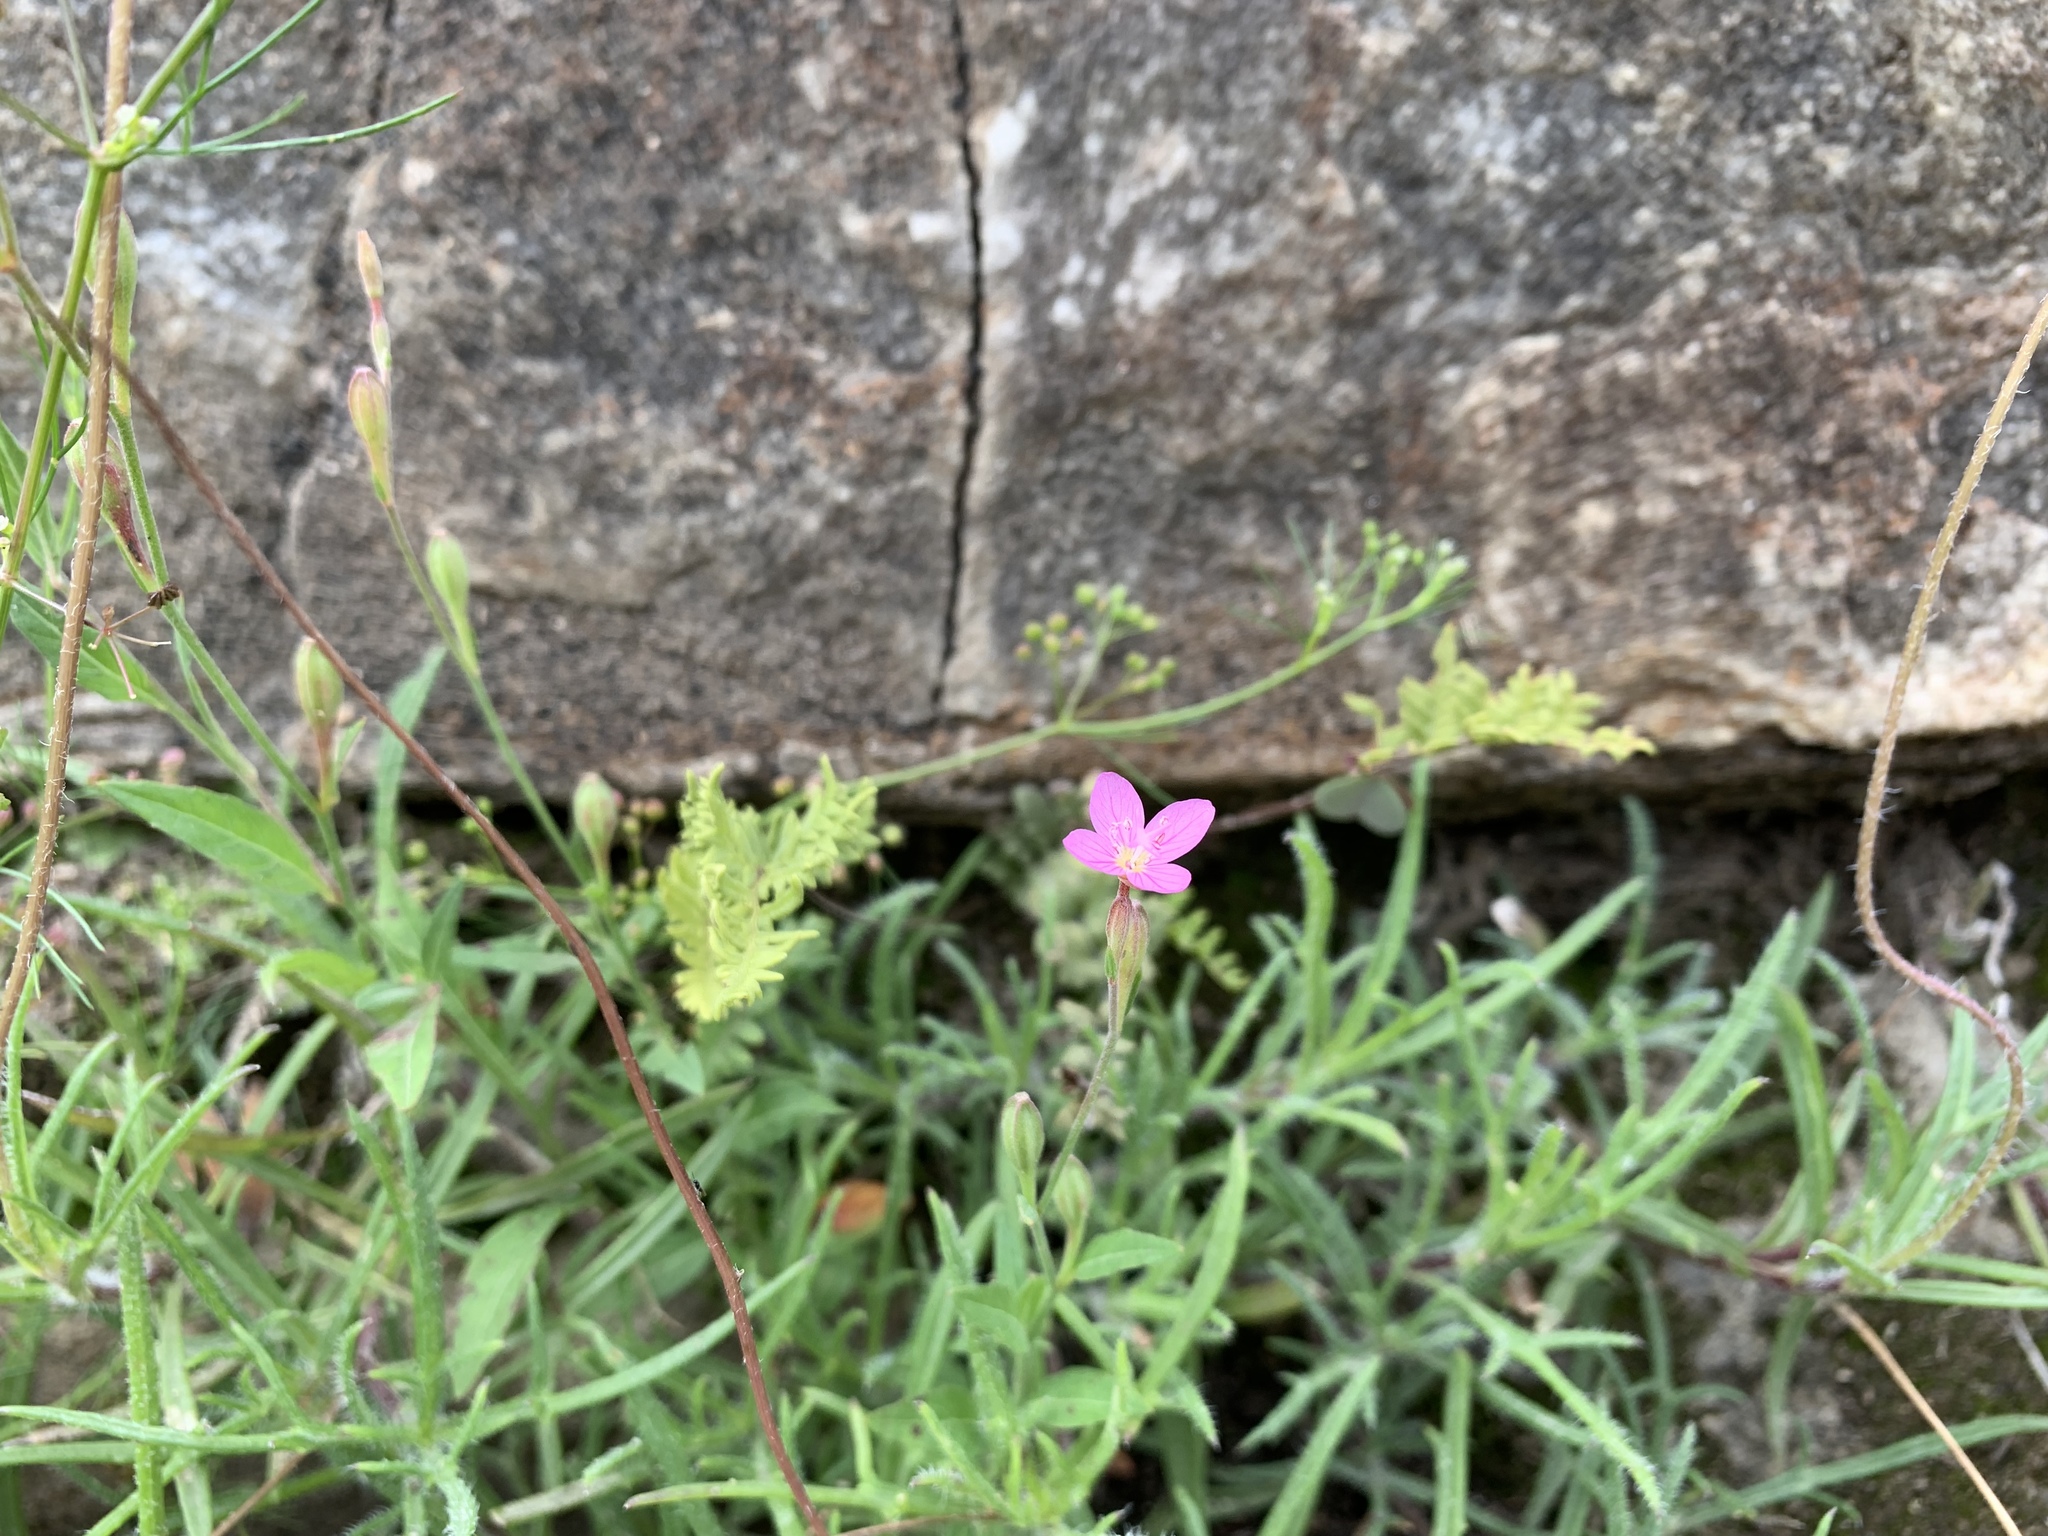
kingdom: Plantae
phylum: Tracheophyta
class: Magnoliopsida
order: Myrtales
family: Onagraceae
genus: Oenothera
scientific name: Oenothera rosea
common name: Rosy evening-primrose
